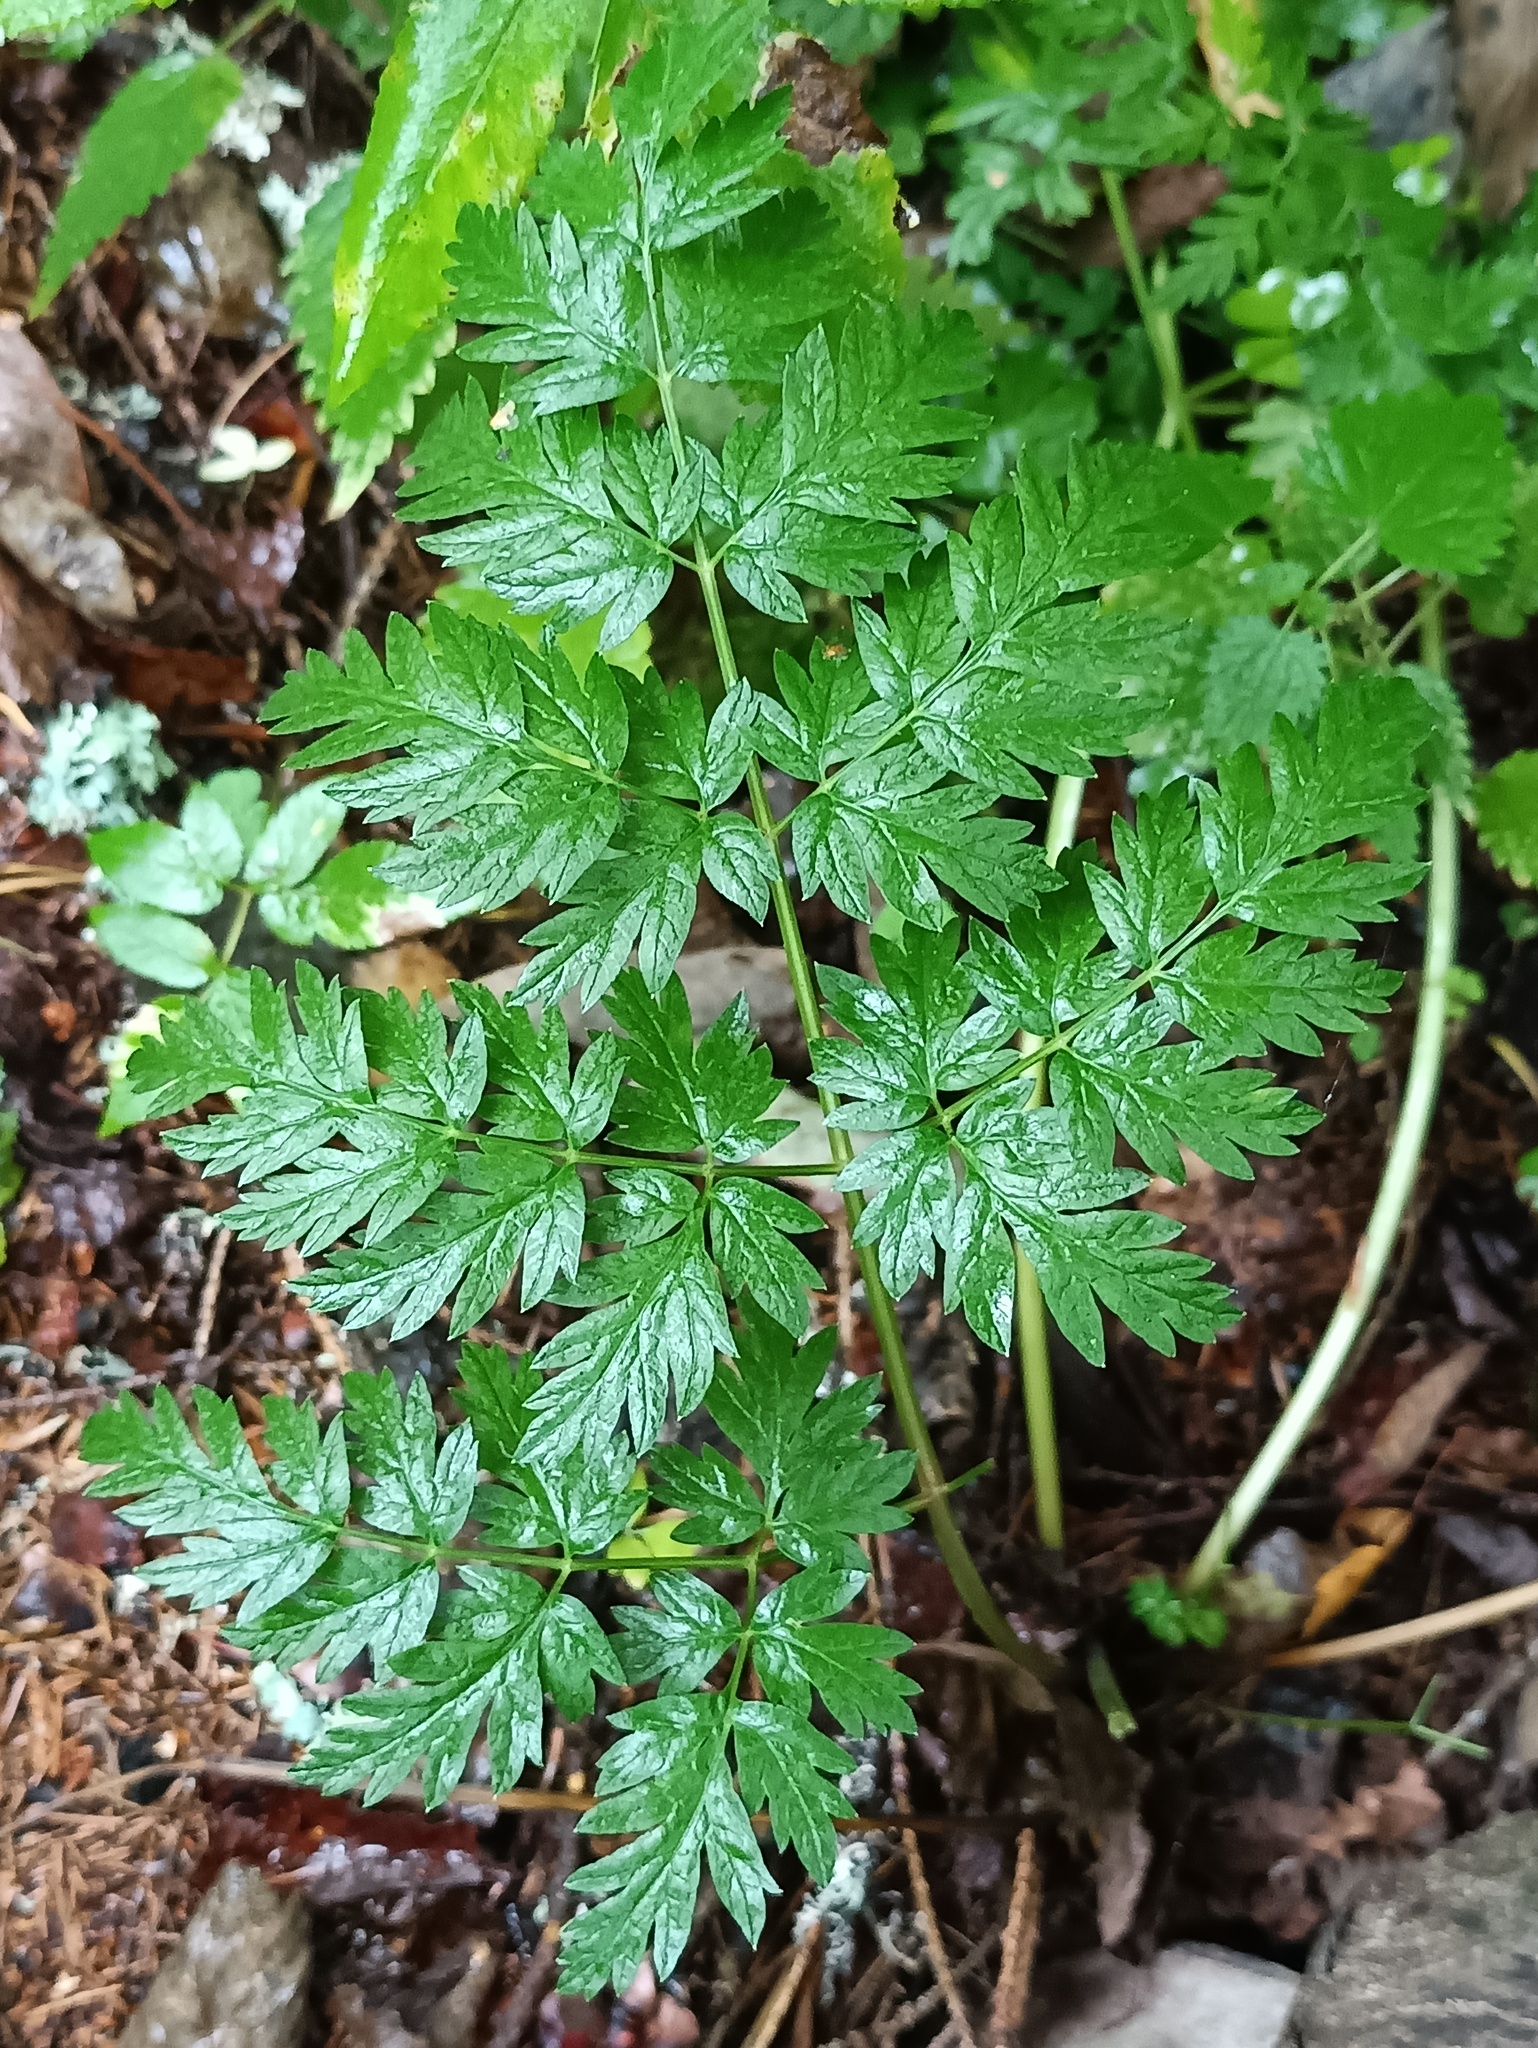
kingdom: Plantae
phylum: Tracheophyta
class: Magnoliopsida
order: Apiales
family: Apiaceae
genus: Anthriscus
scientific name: Anthriscus sylvestris
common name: Cow parsley
